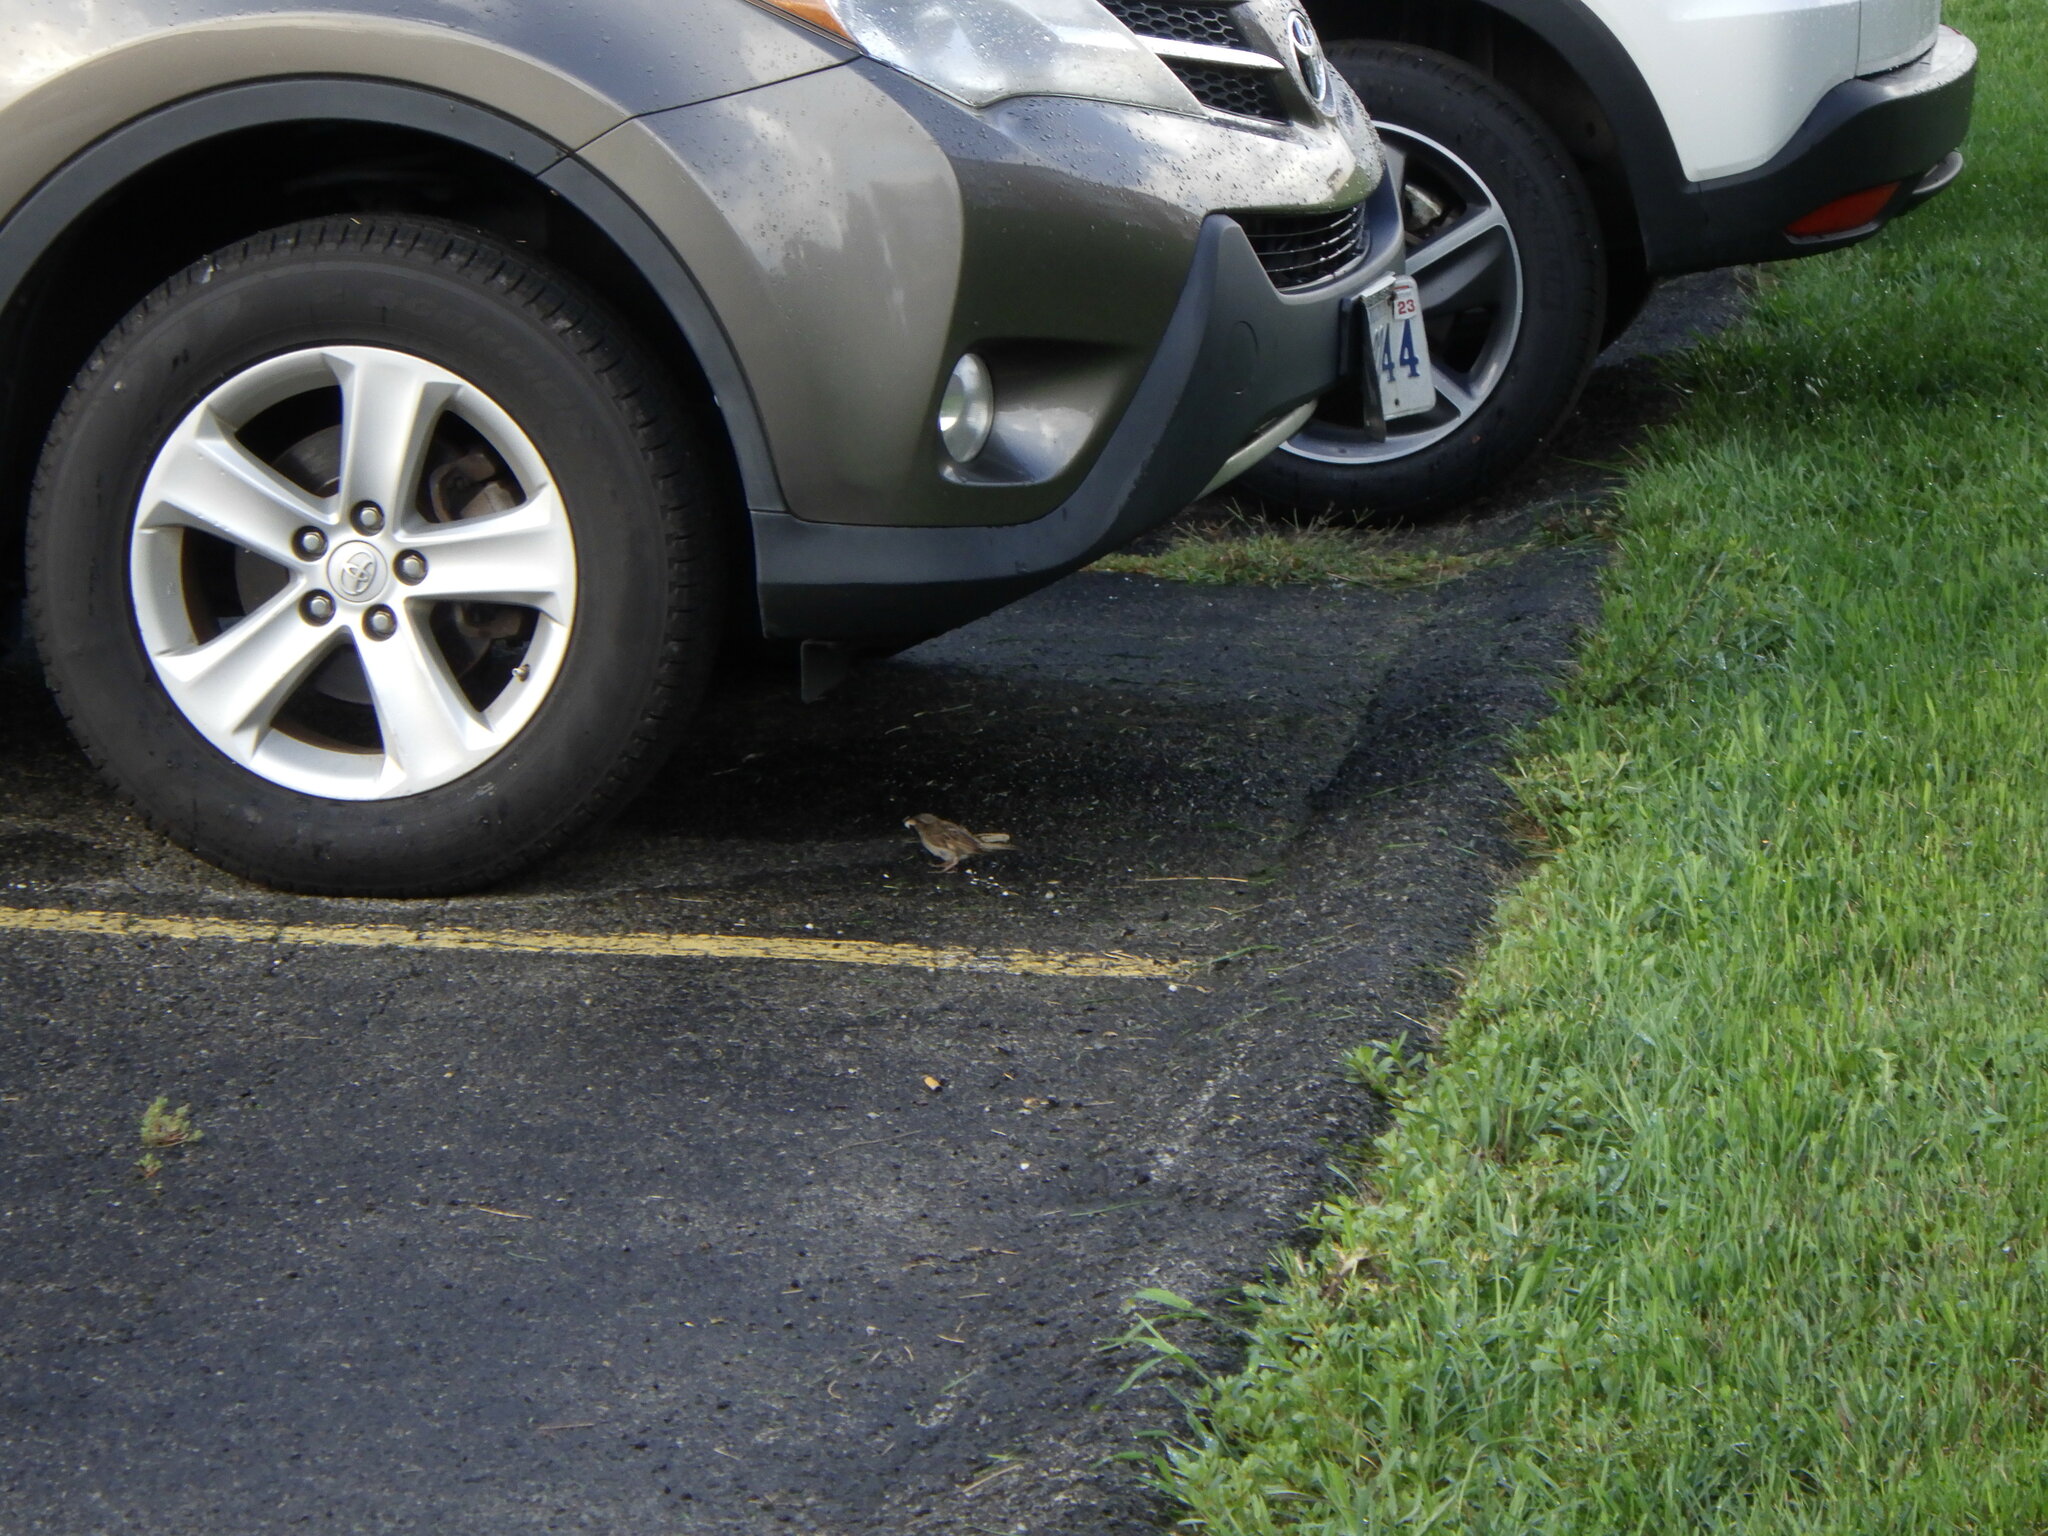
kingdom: Animalia
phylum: Chordata
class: Aves
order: Passeriformes
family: Passeridae
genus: Passer
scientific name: Passer domesticus
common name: House sparrow
